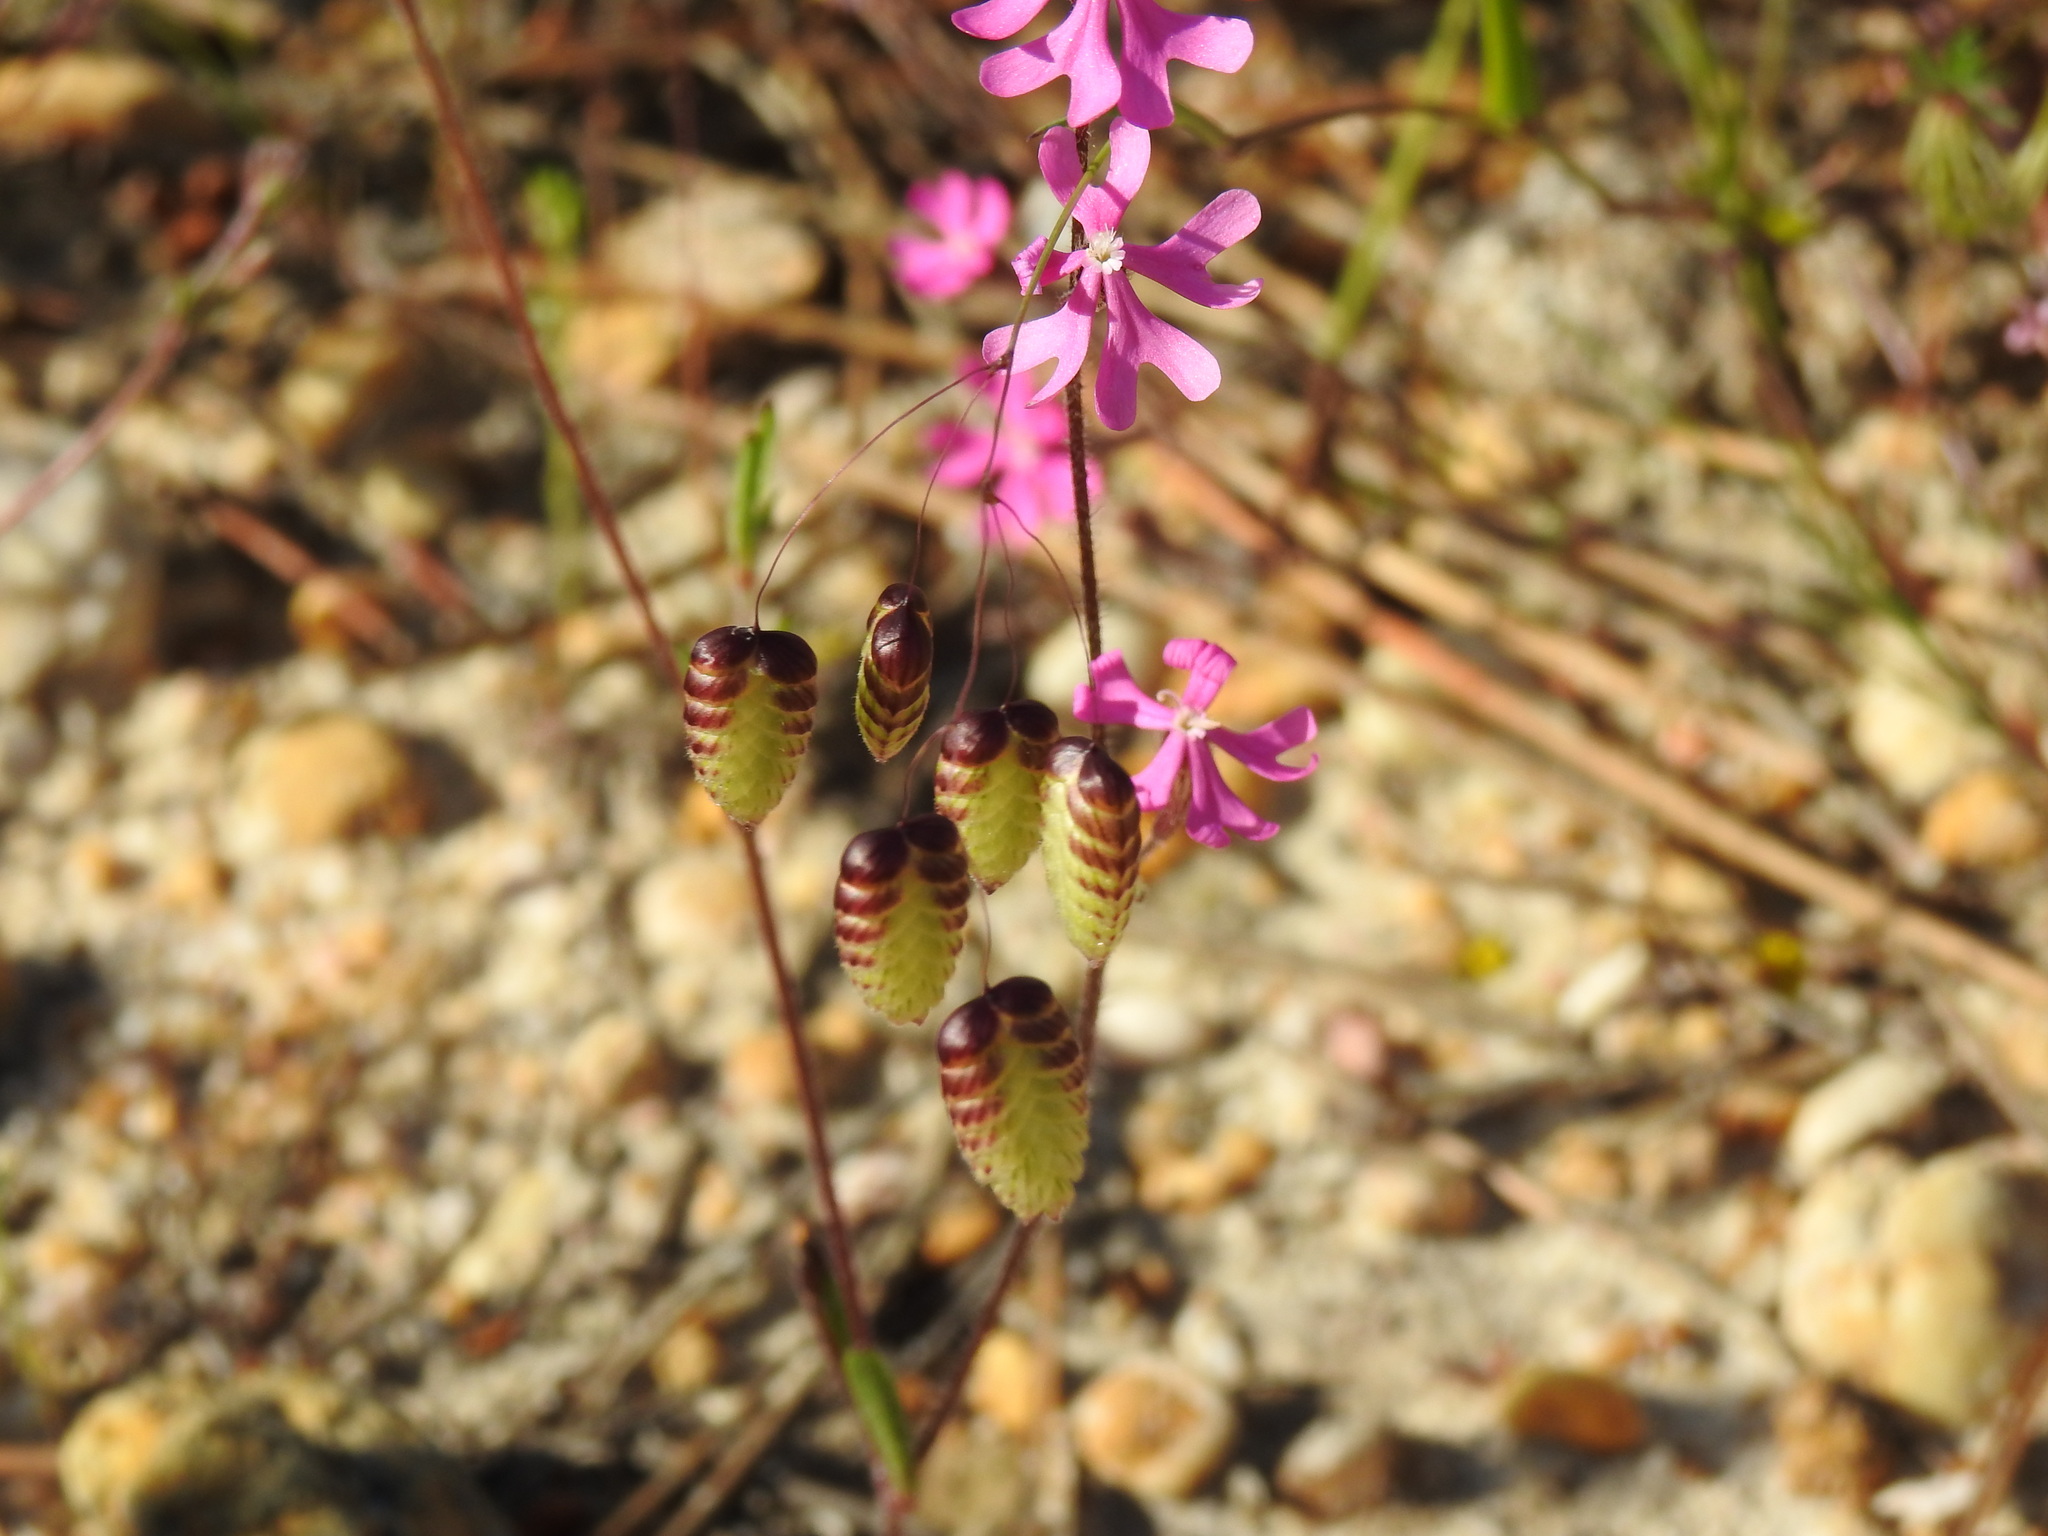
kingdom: Plantae
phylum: Tracheophyta
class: Liliopsida
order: Poales
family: Poaceae
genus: Briza
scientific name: Briza maxima
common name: Big quakinggrass
